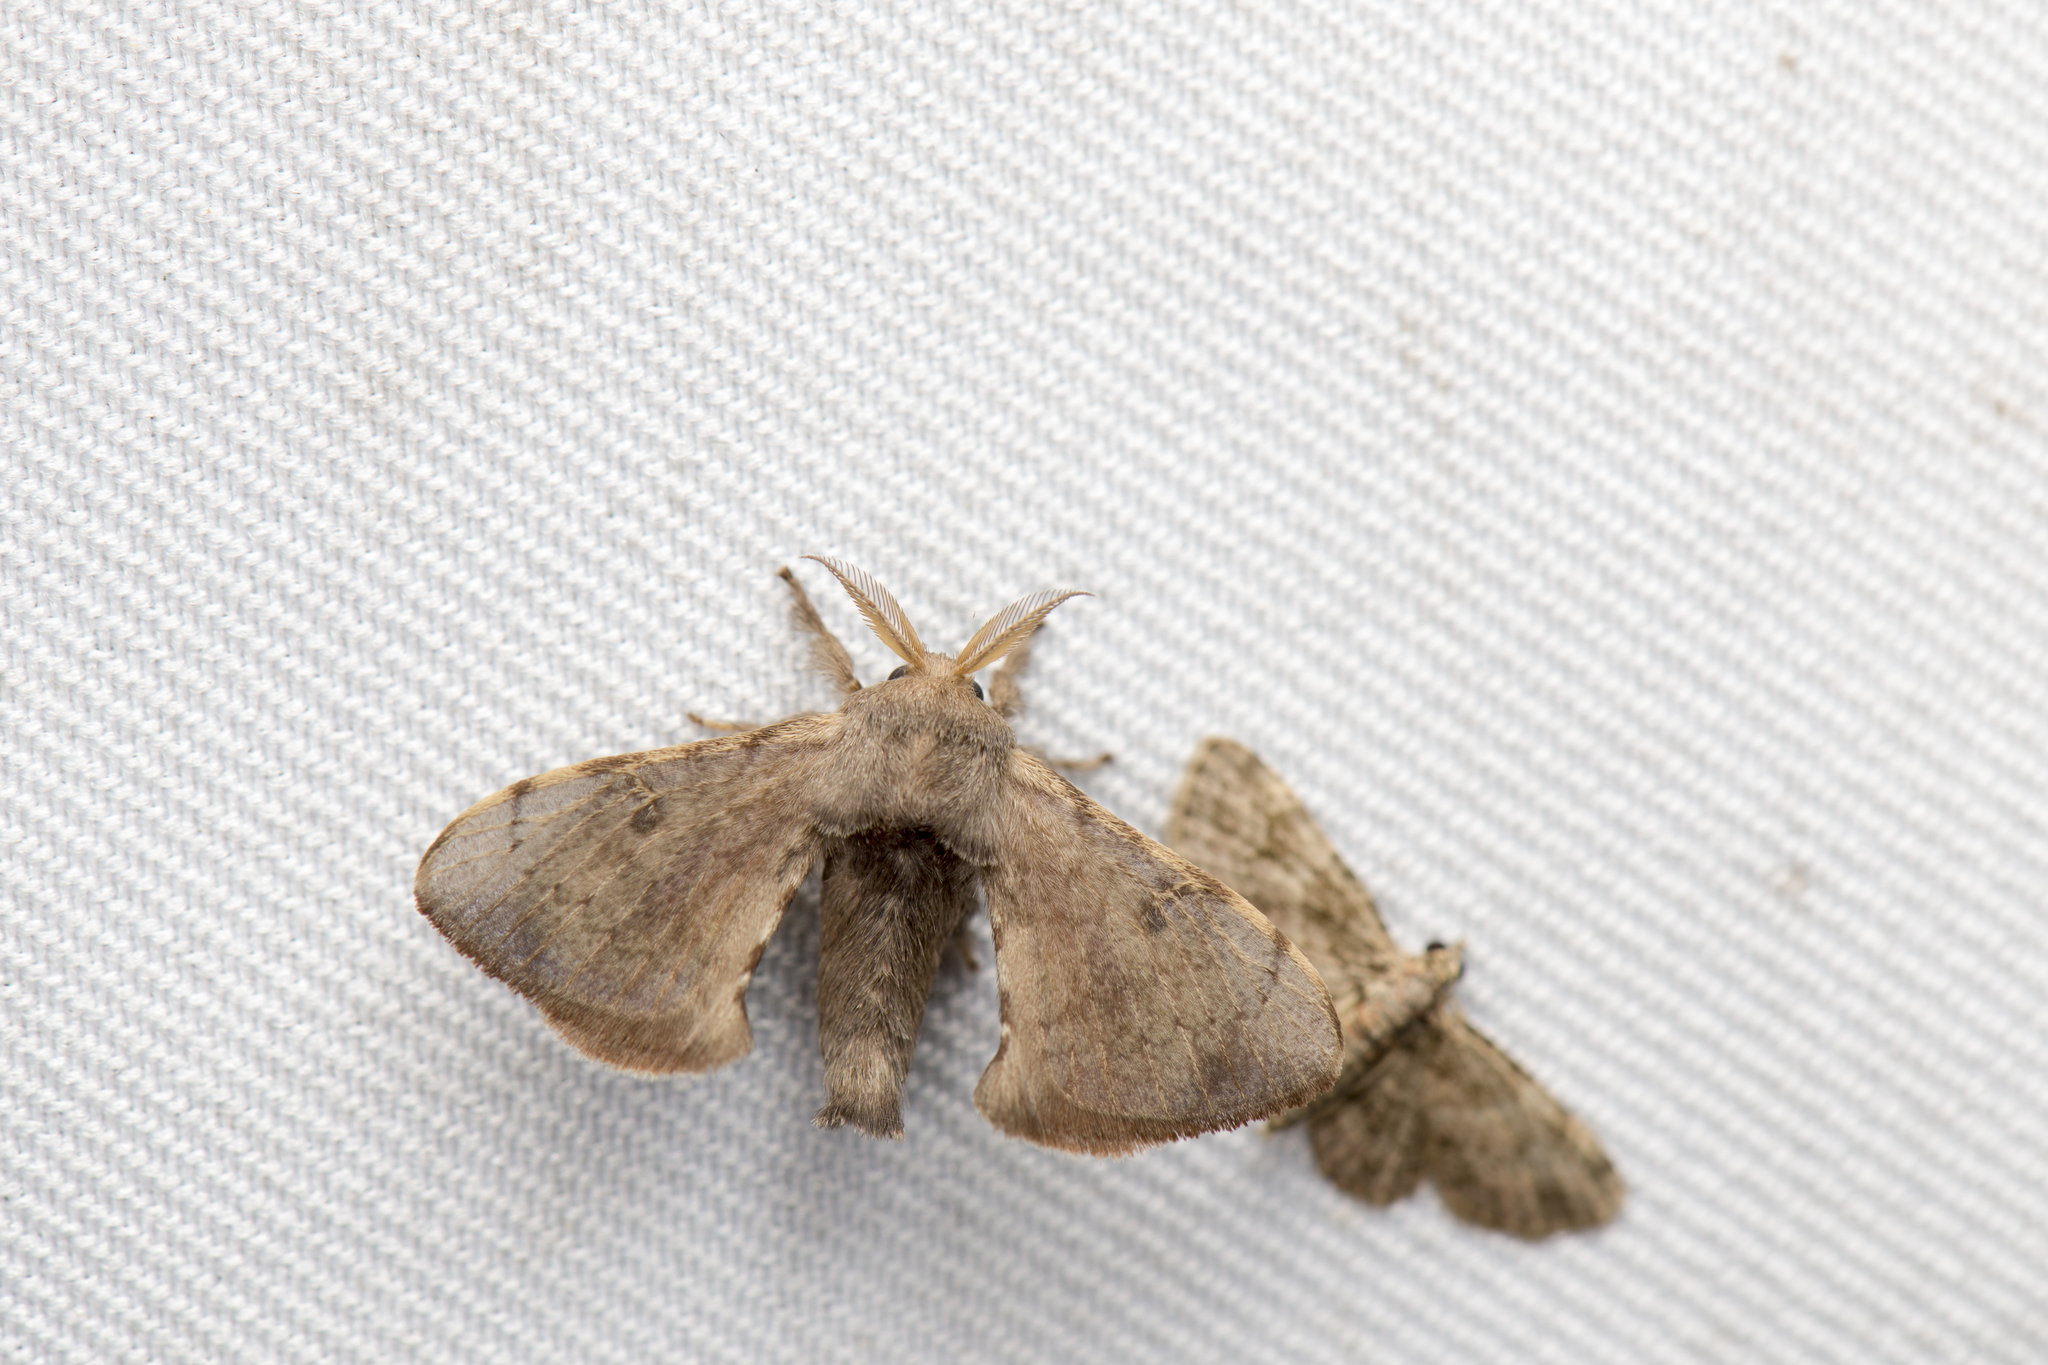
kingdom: Animalia
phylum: Arthropoda
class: Insecta
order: Lepidoptera
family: Bombycidae
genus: Trilocha
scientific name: Trilocha varians
